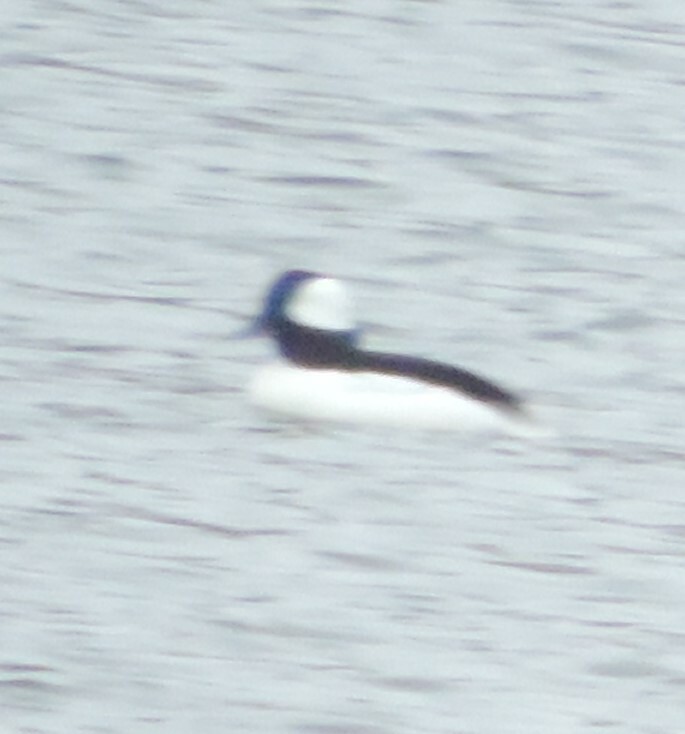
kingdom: Animalia
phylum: Chordata
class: Aves
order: Anseriformes
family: Anatidae
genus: Bucephala
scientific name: Bucephala albeola
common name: Bufflehead
